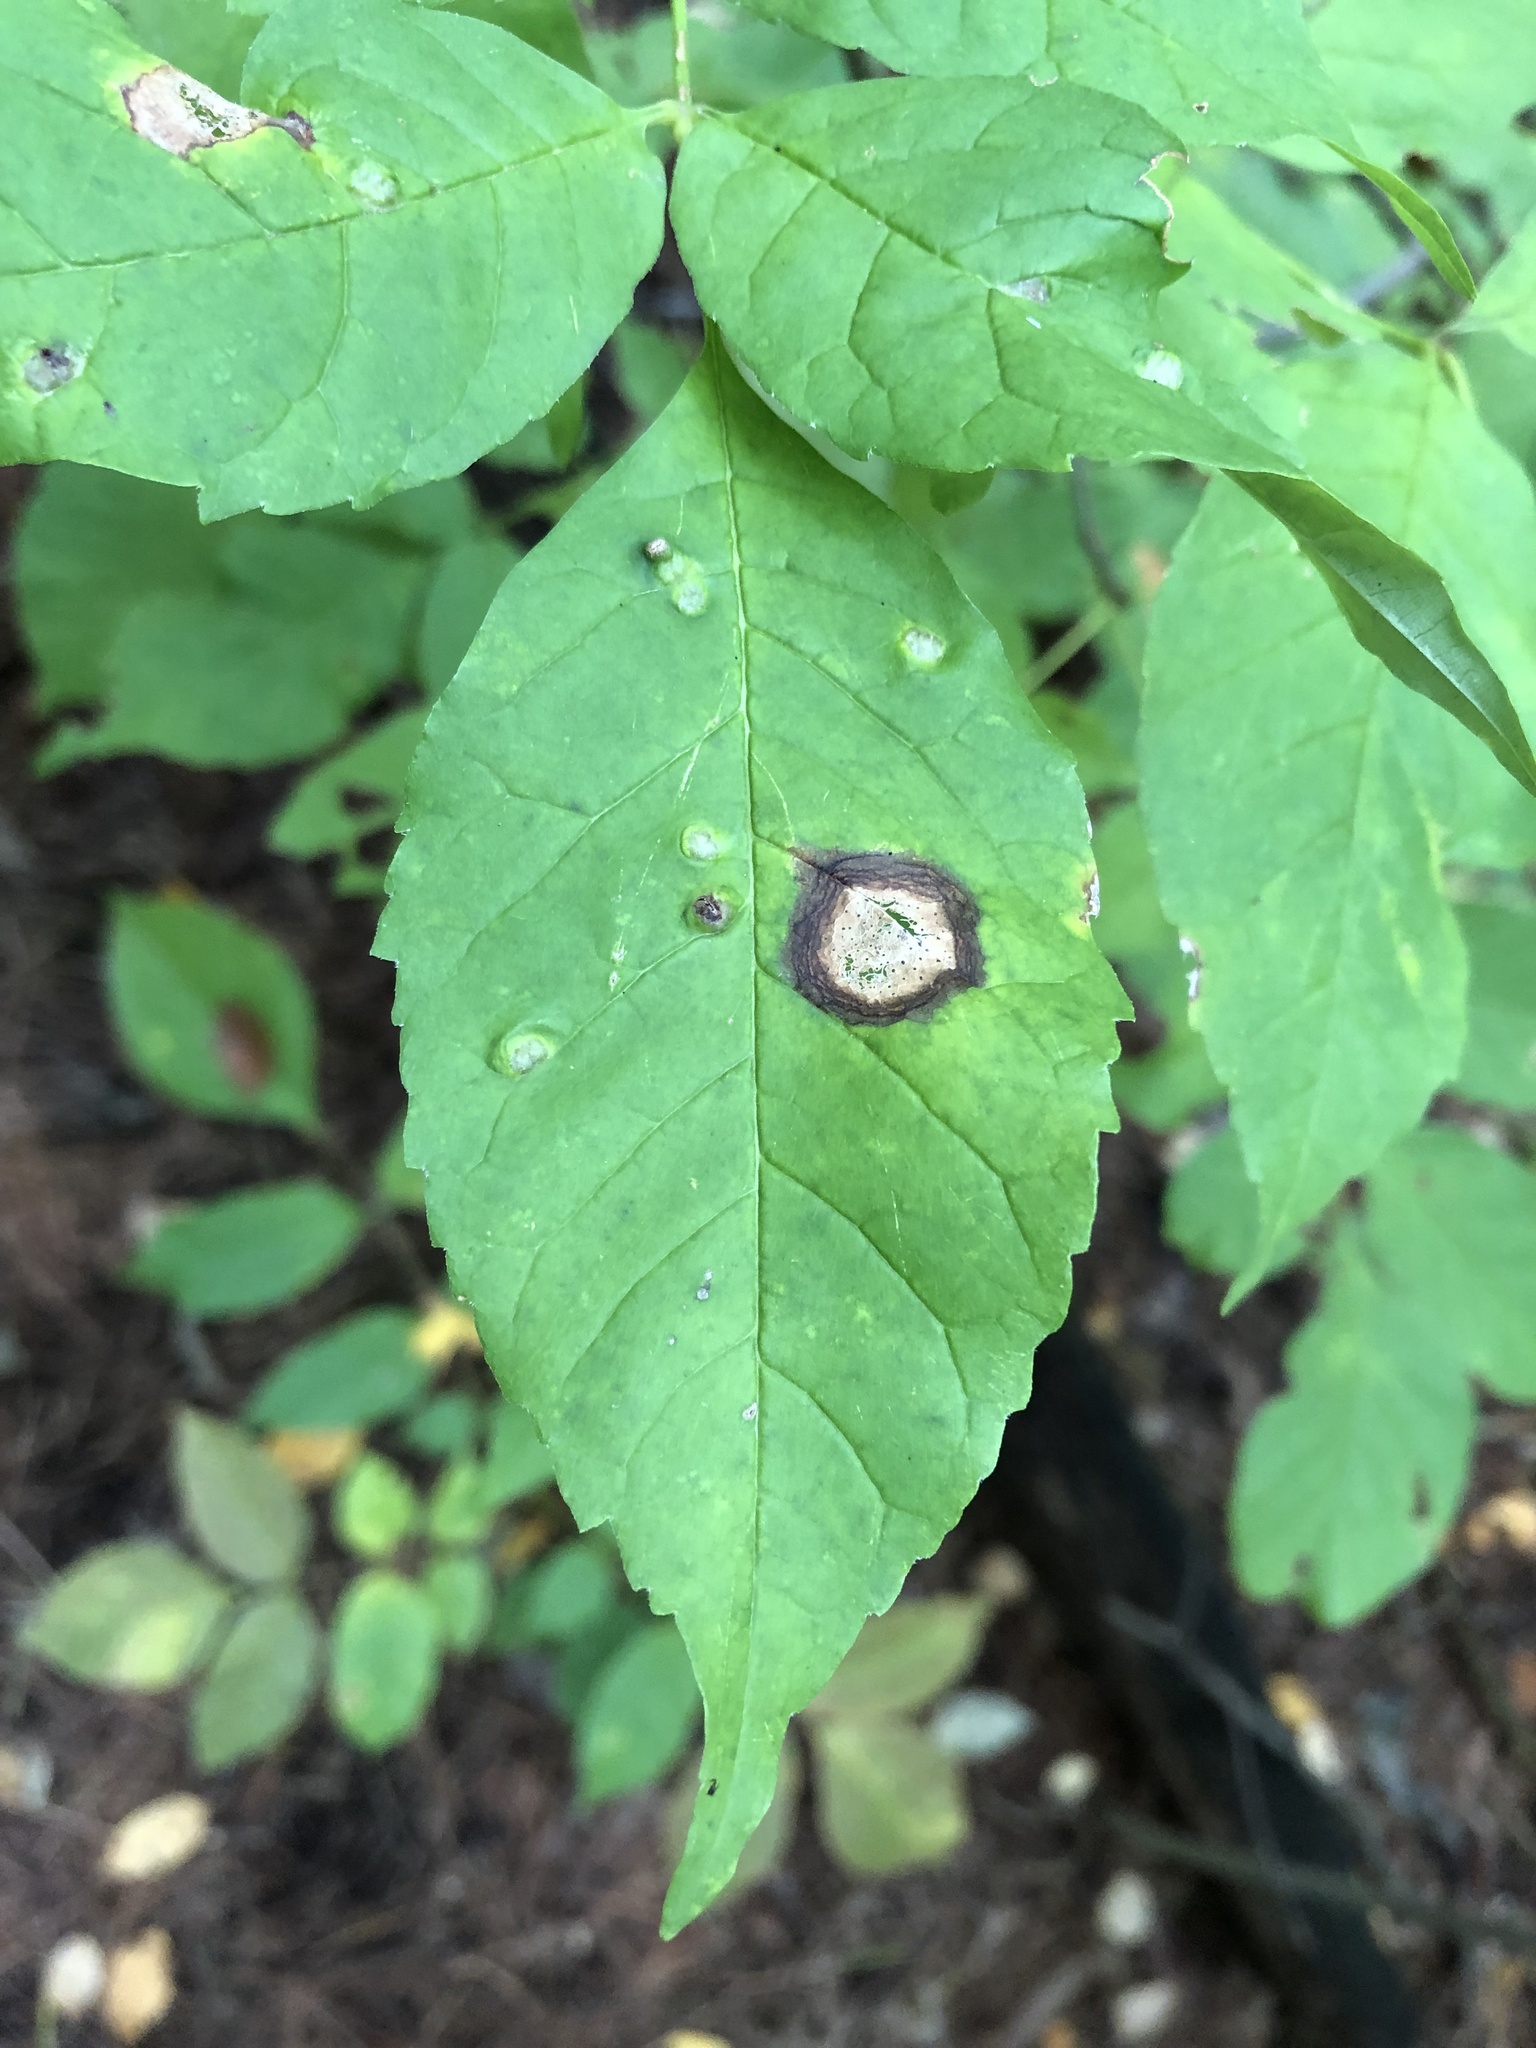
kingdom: Animalia
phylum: Arthropoda
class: Arachnida
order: Trombidiformes
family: Eriophyidae
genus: Aceria
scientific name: Aceria fraxinicola
